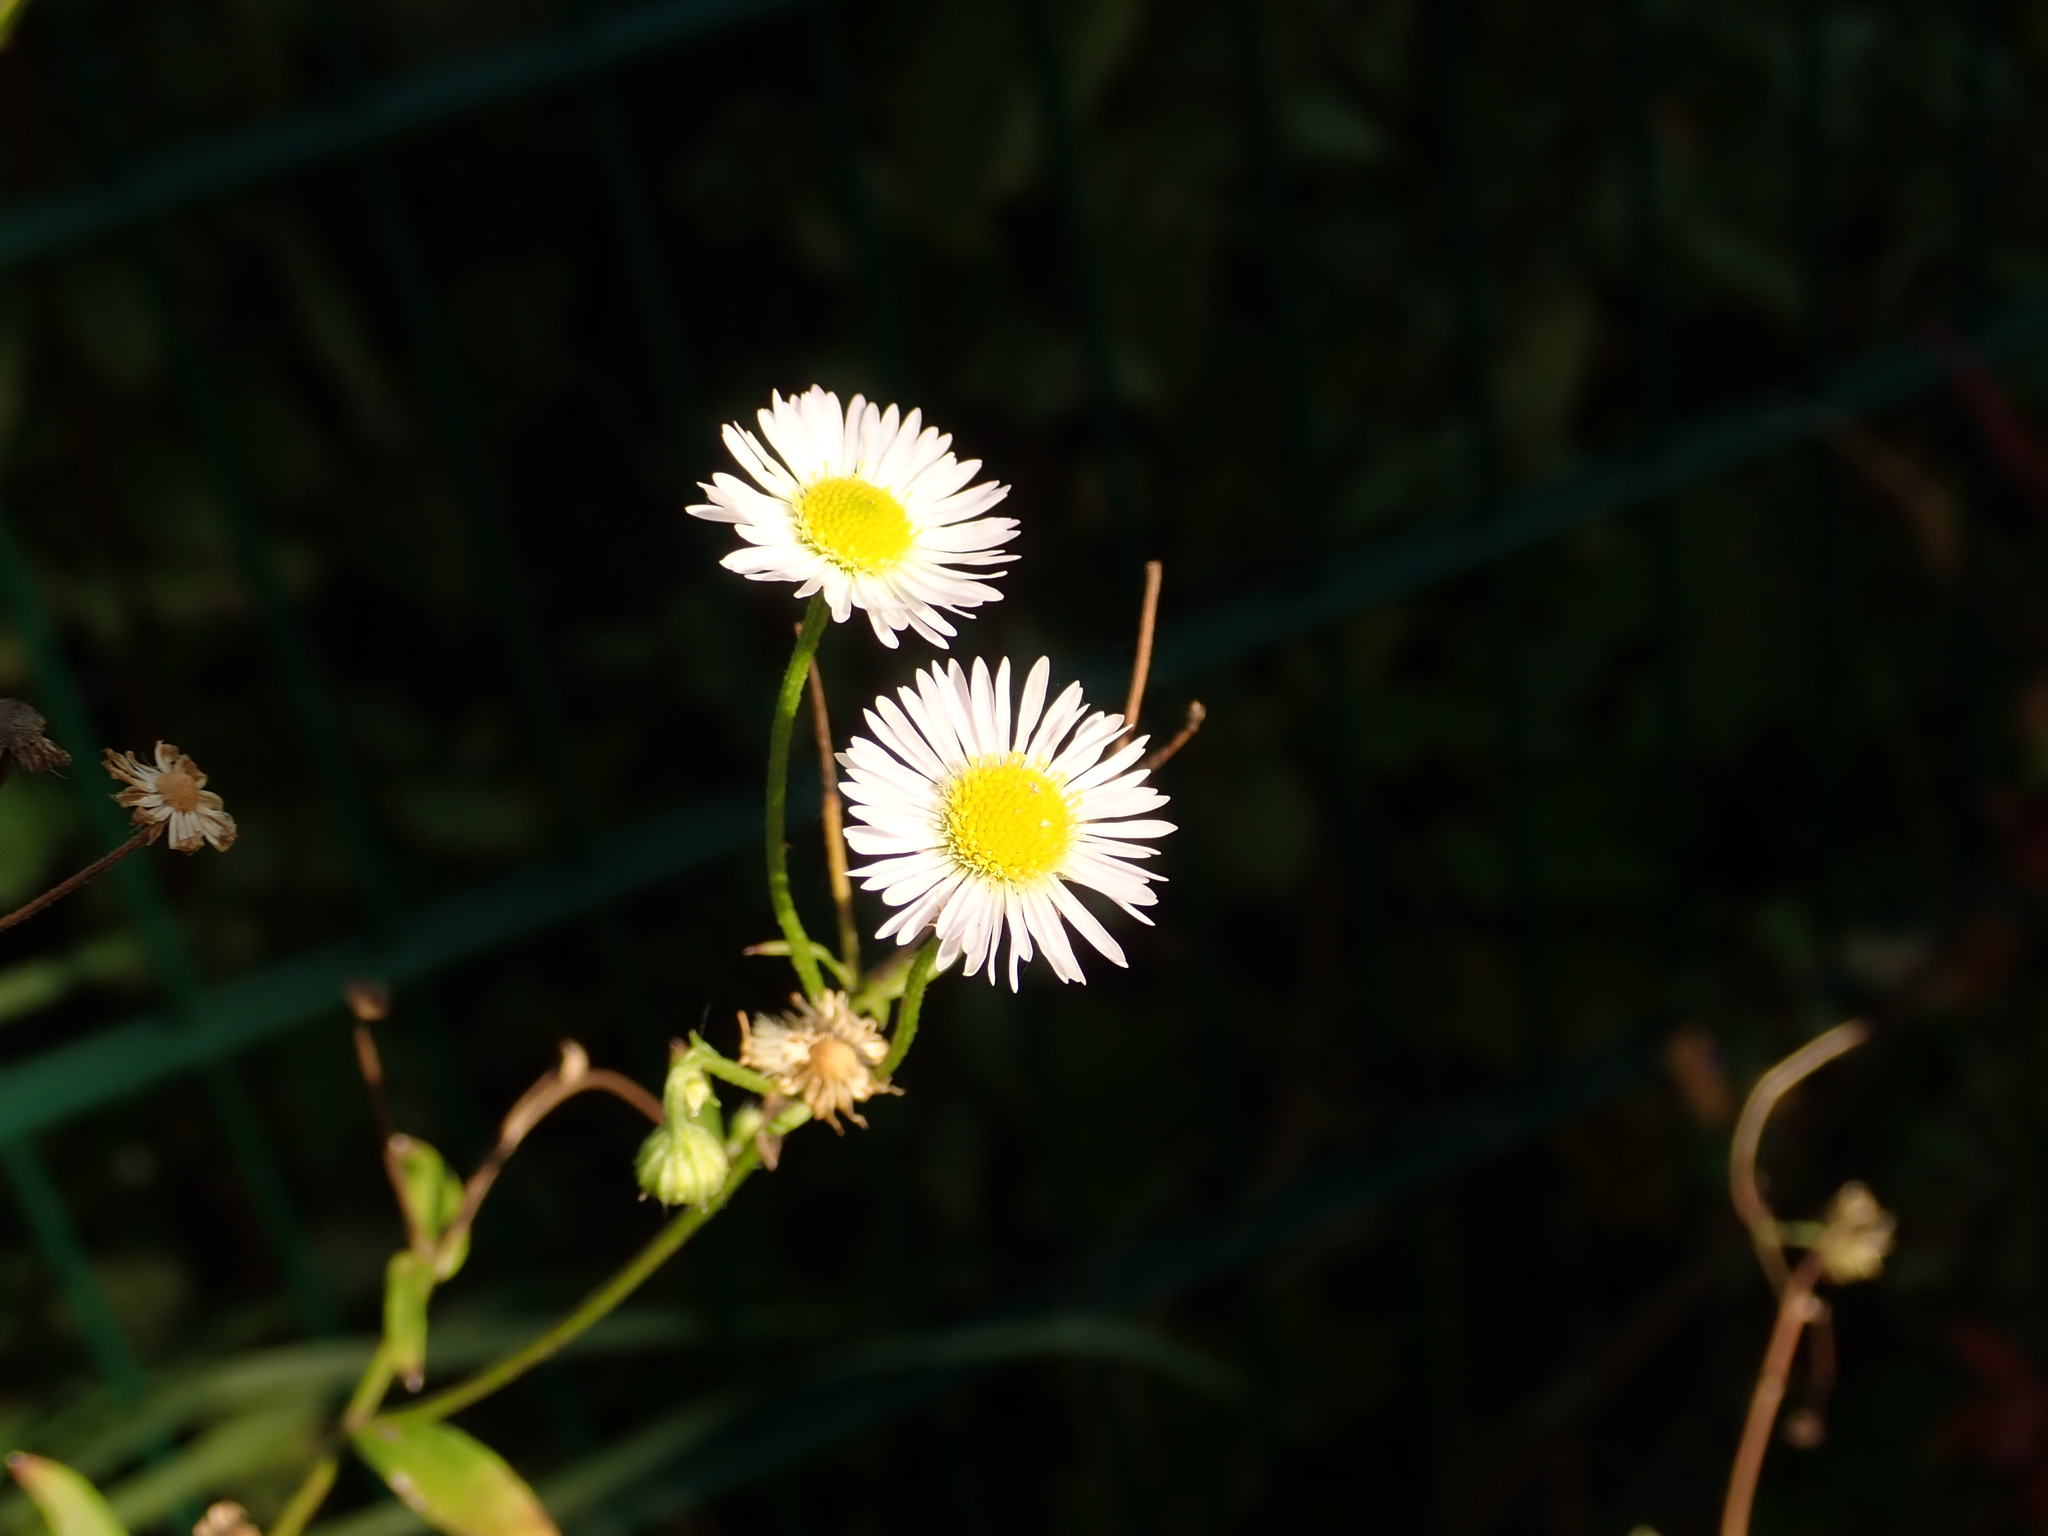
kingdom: Plantae
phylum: Tracheophyta
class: Magnoliopsida
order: Asterales
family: Asteraceae
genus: Erigeron
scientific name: Erigeron annuus
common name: Tall fleabane
